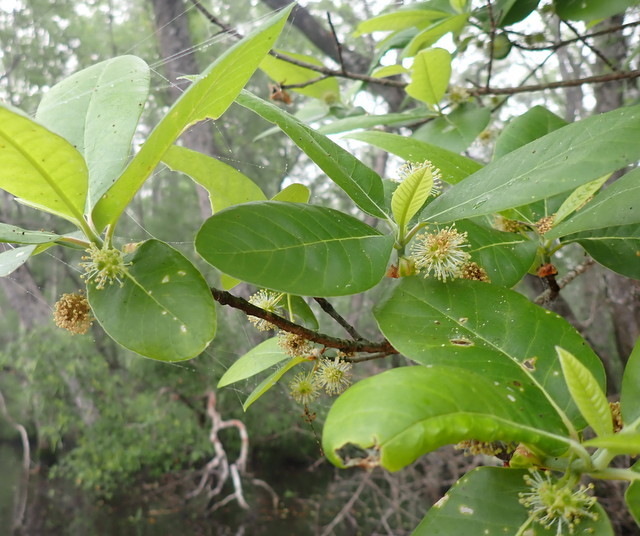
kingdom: Plantae
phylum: Tracheophyta
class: Magnoliopsida
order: Cornales
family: Nyssaceae
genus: Nyssa
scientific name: Nyssa ogeche
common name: Ogeechee tupelo
